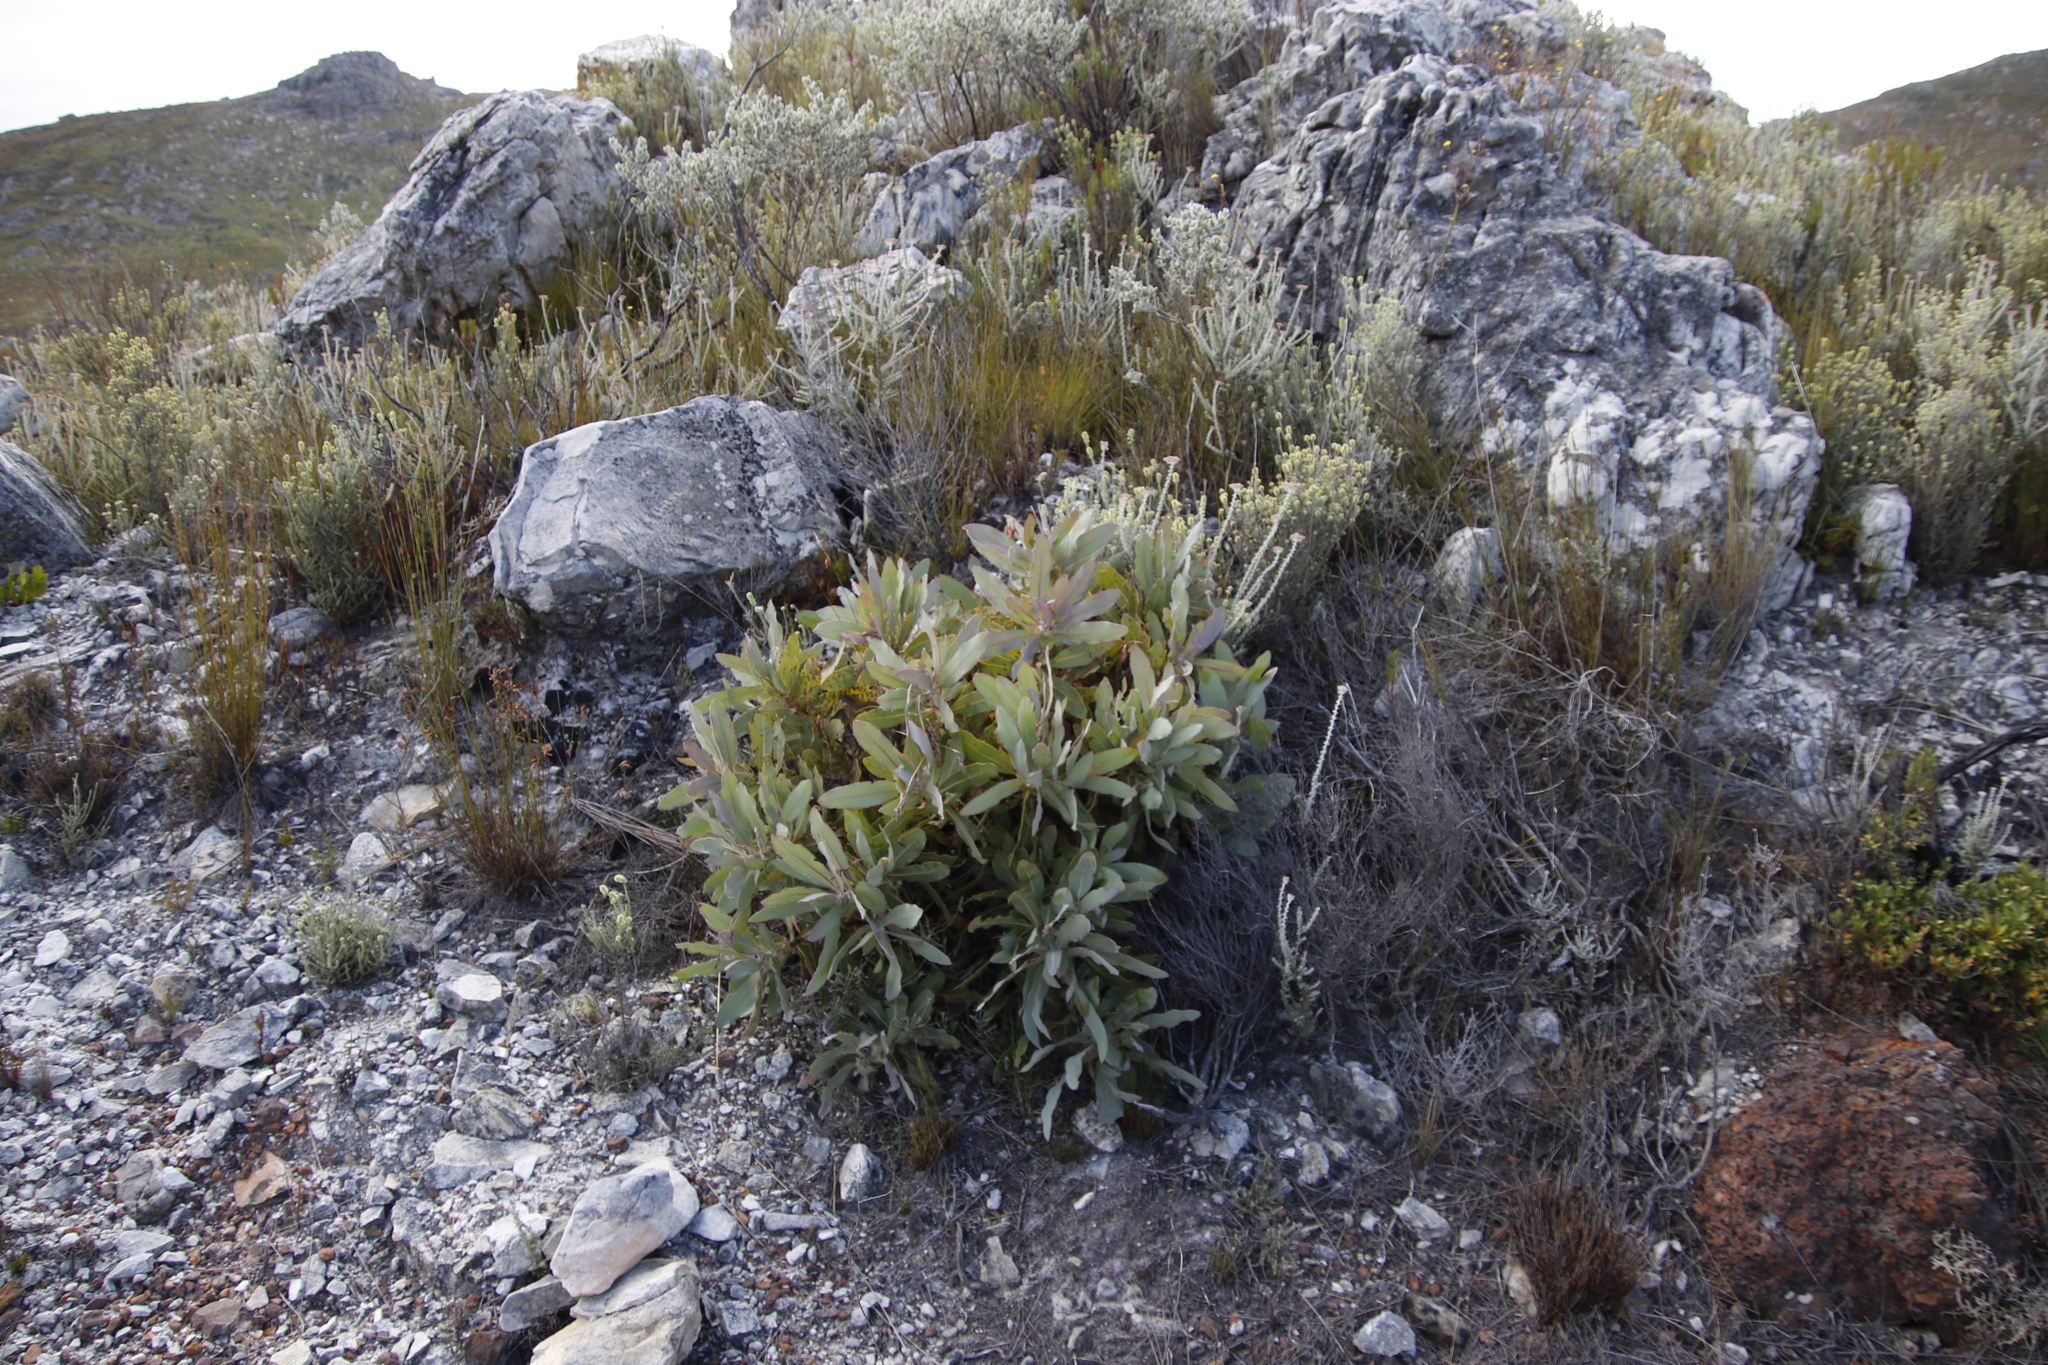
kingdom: Plantae
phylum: Tracheophyta
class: Magnoliopsida
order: Proteales
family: Proteaceae
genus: Protea
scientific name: Protea magnifica
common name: Bearded sugarbush
